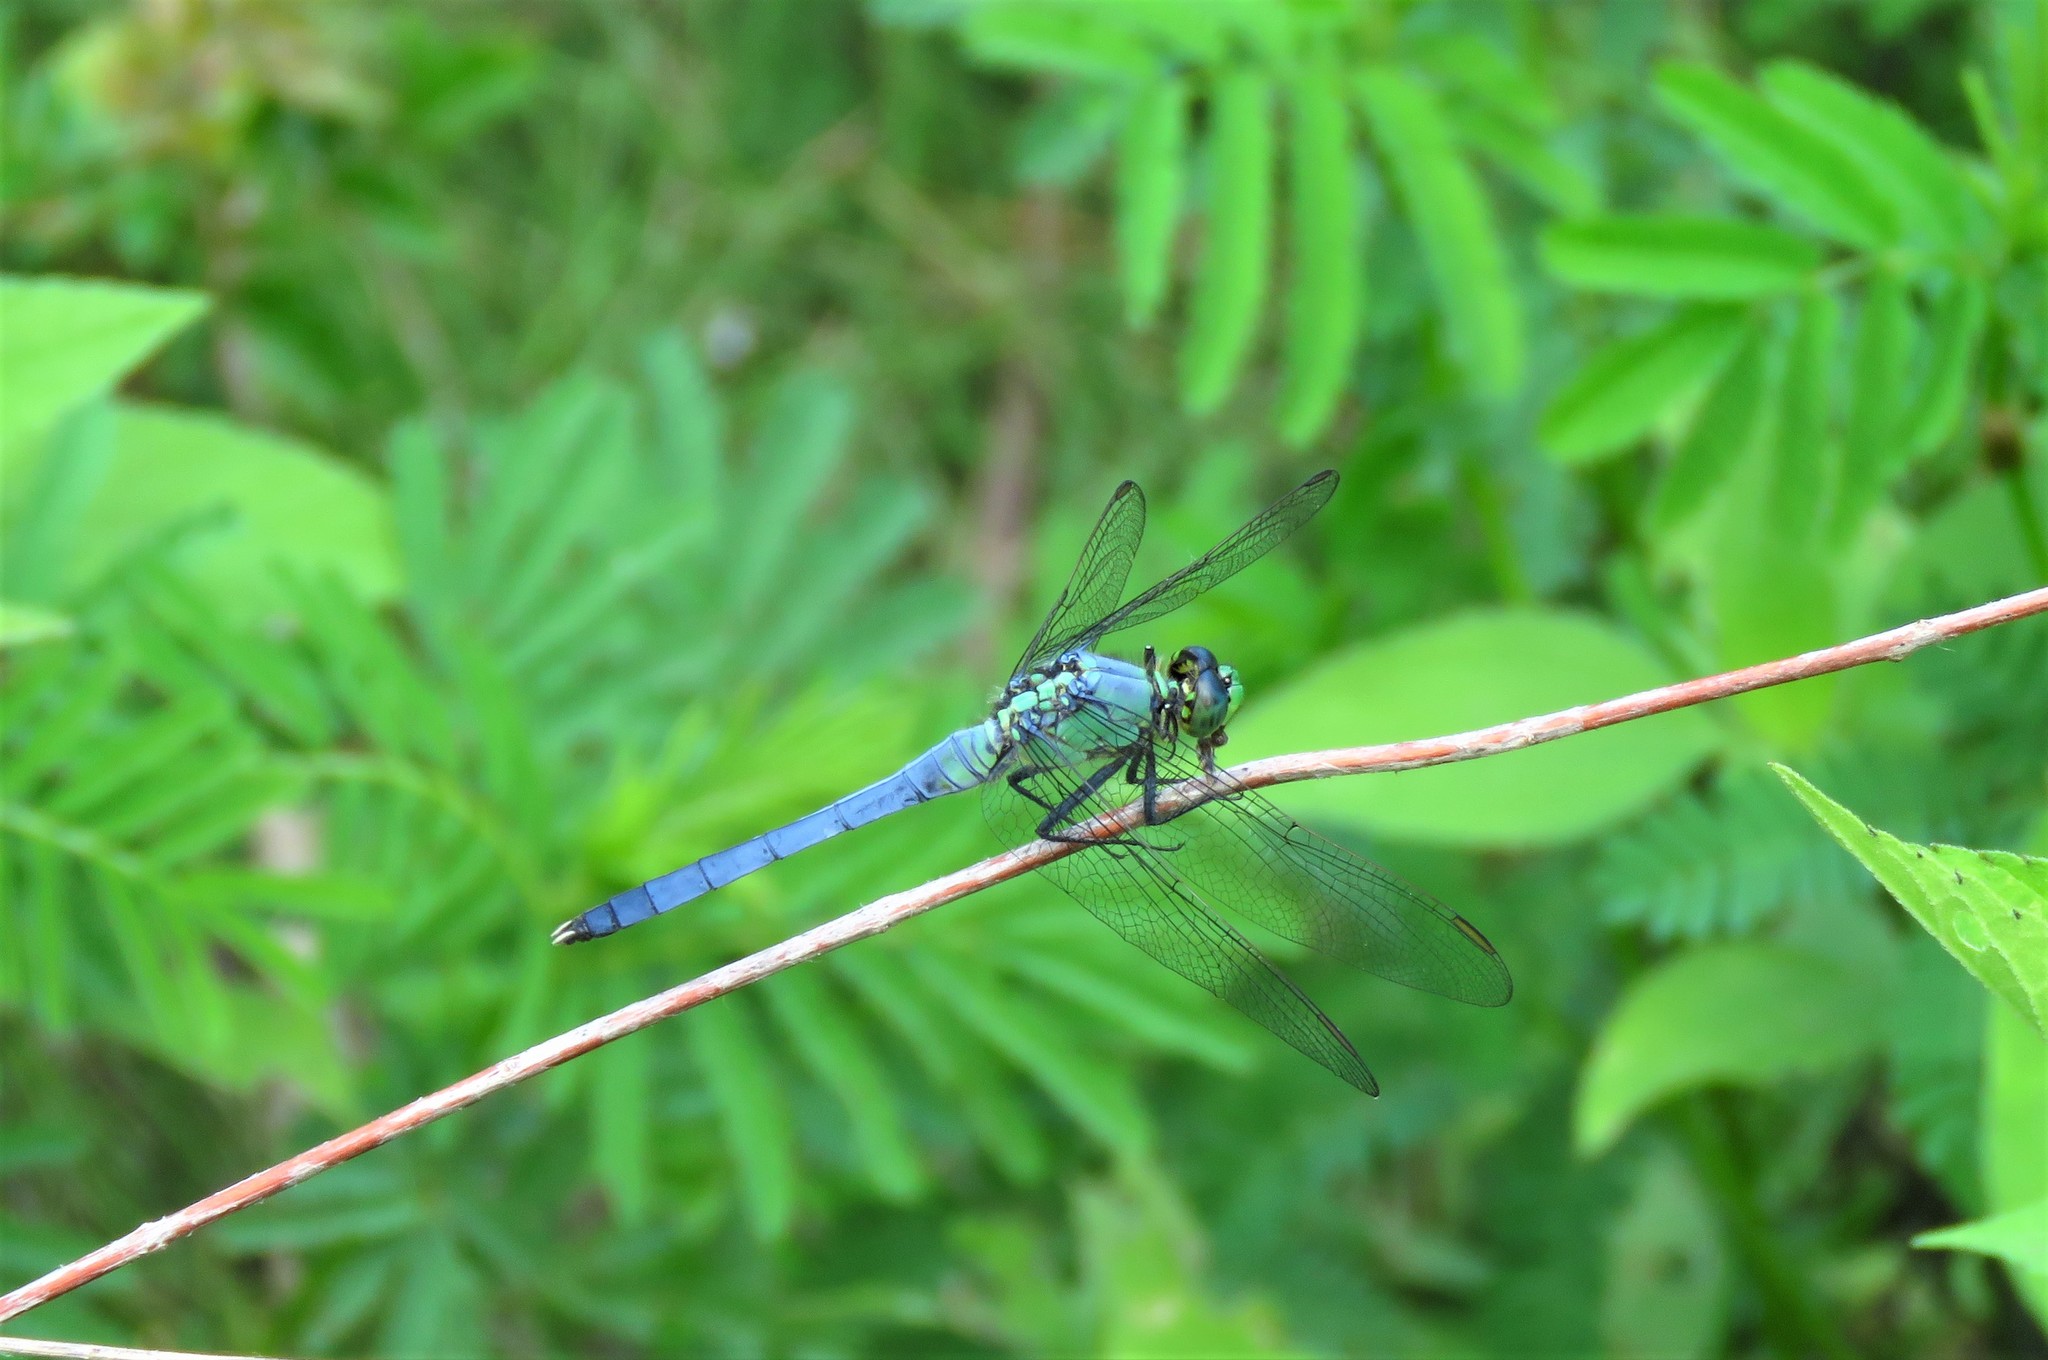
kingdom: Animalia
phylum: Arthropoda
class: Insecta
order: Odonata
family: Libellulidae
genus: Erythemis
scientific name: Erythemis simplicicollis
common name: Eastern pondhawk
